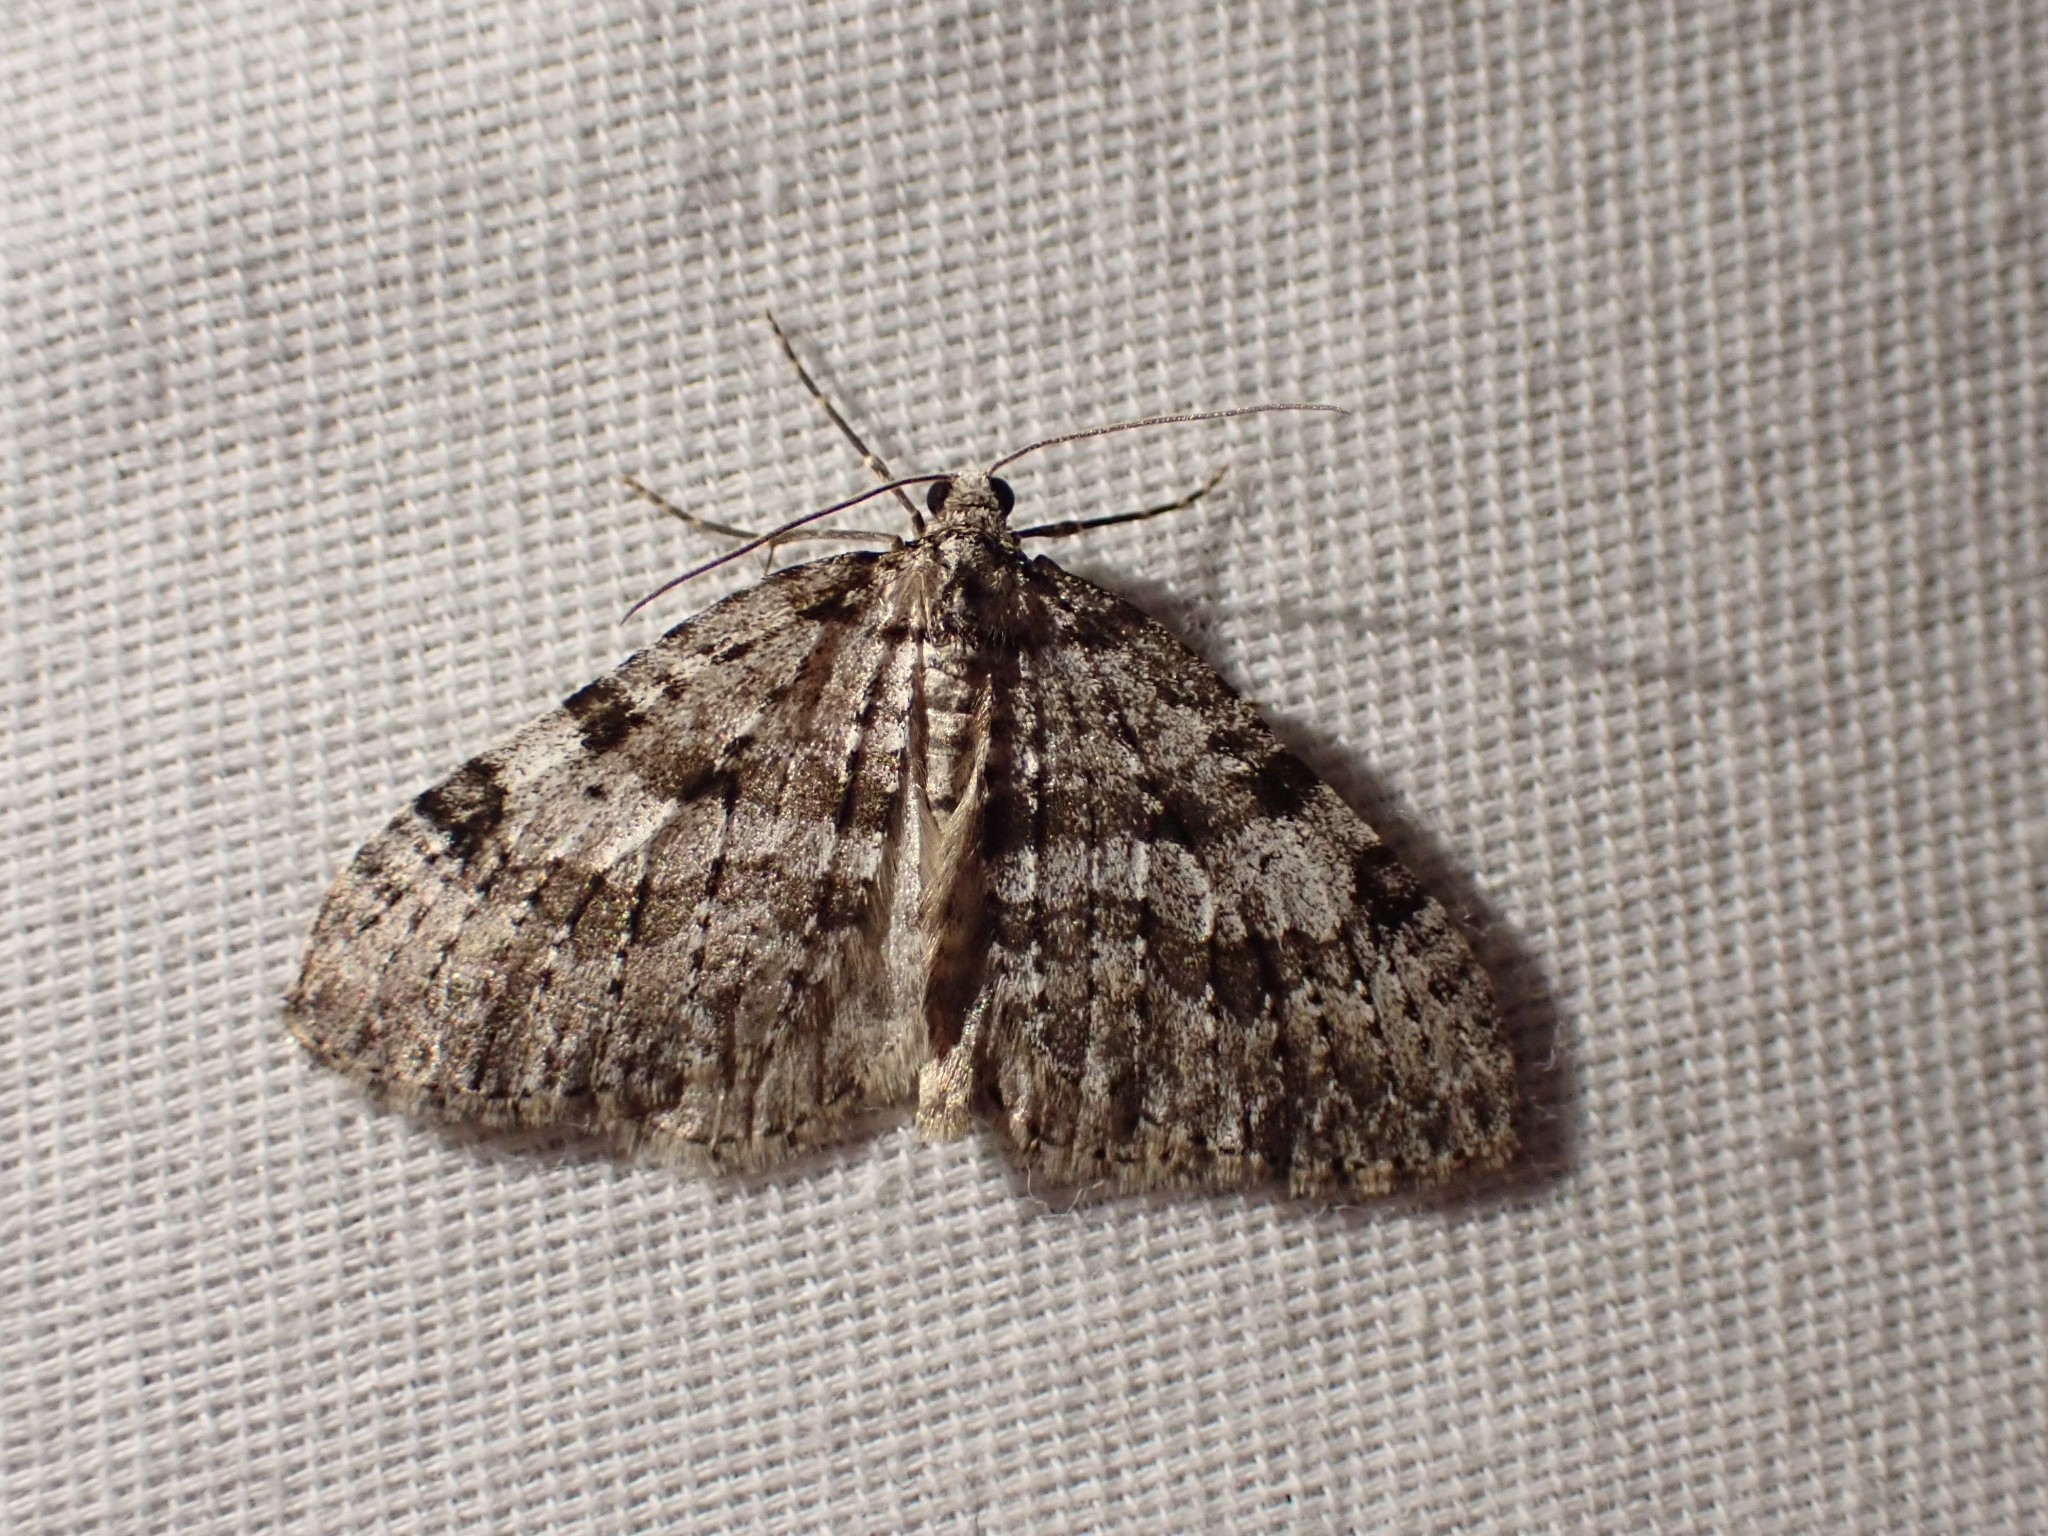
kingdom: Animalia
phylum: Arthropoda
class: Insecta
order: Lepidoptera
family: Geometridae
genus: Perizoma
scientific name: Perizoma curvilinea
